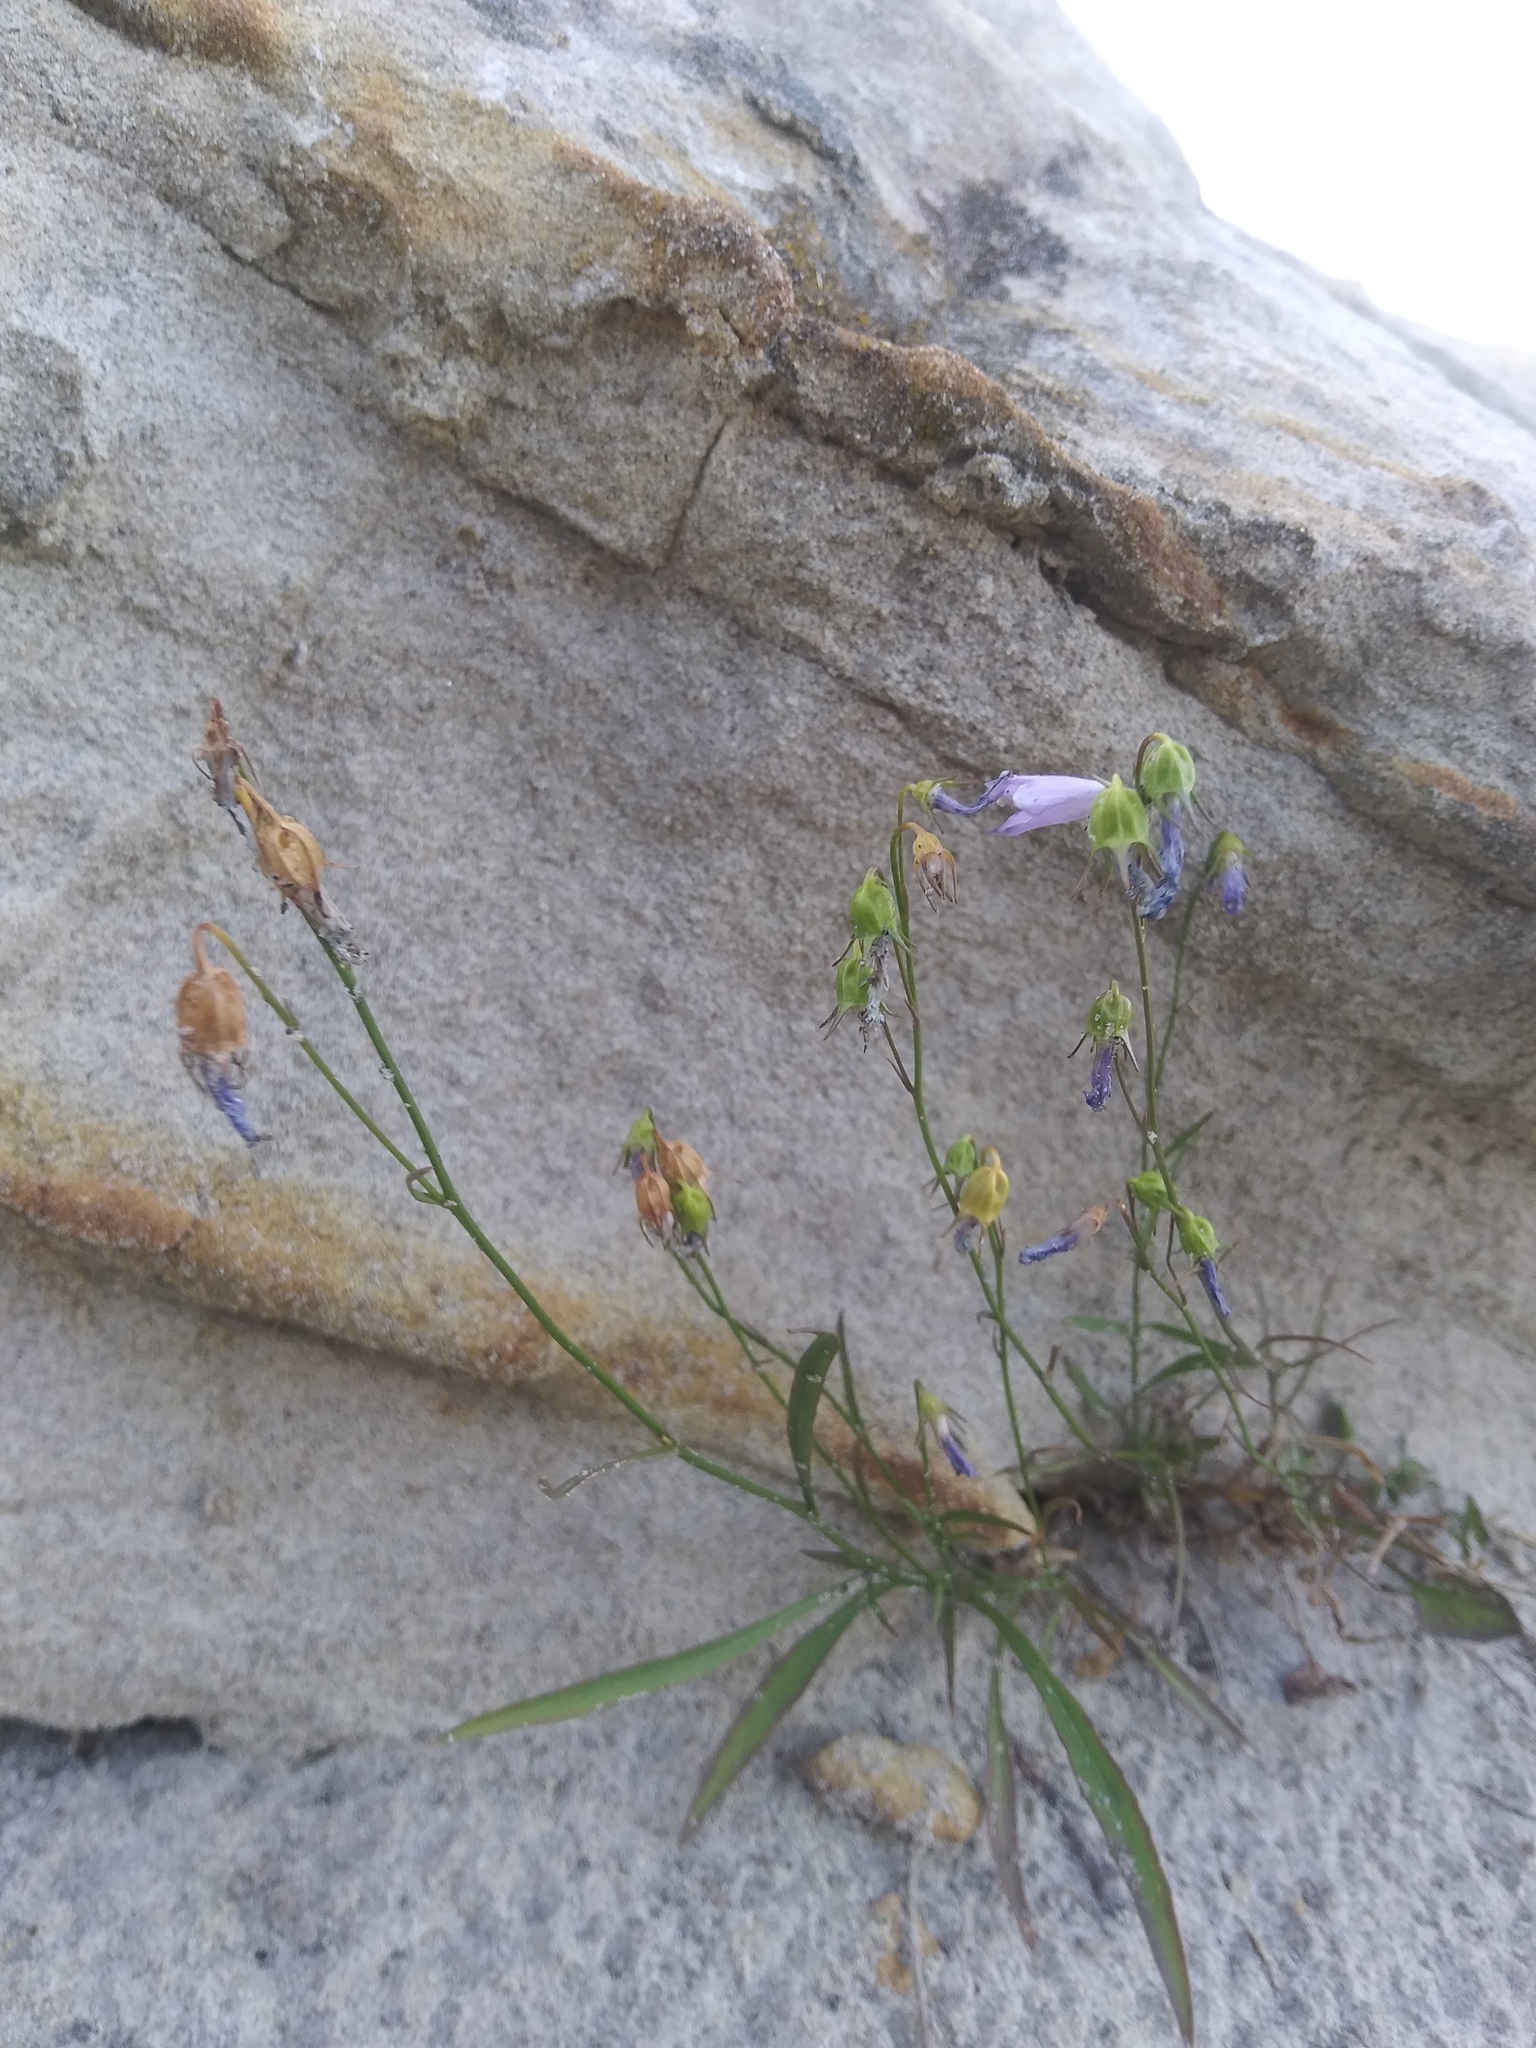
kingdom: Plantae
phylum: Tracheophyta
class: Magnoliopsida
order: Asterales
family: Campanulaceae
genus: Campanula
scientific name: Campanula petiolata
